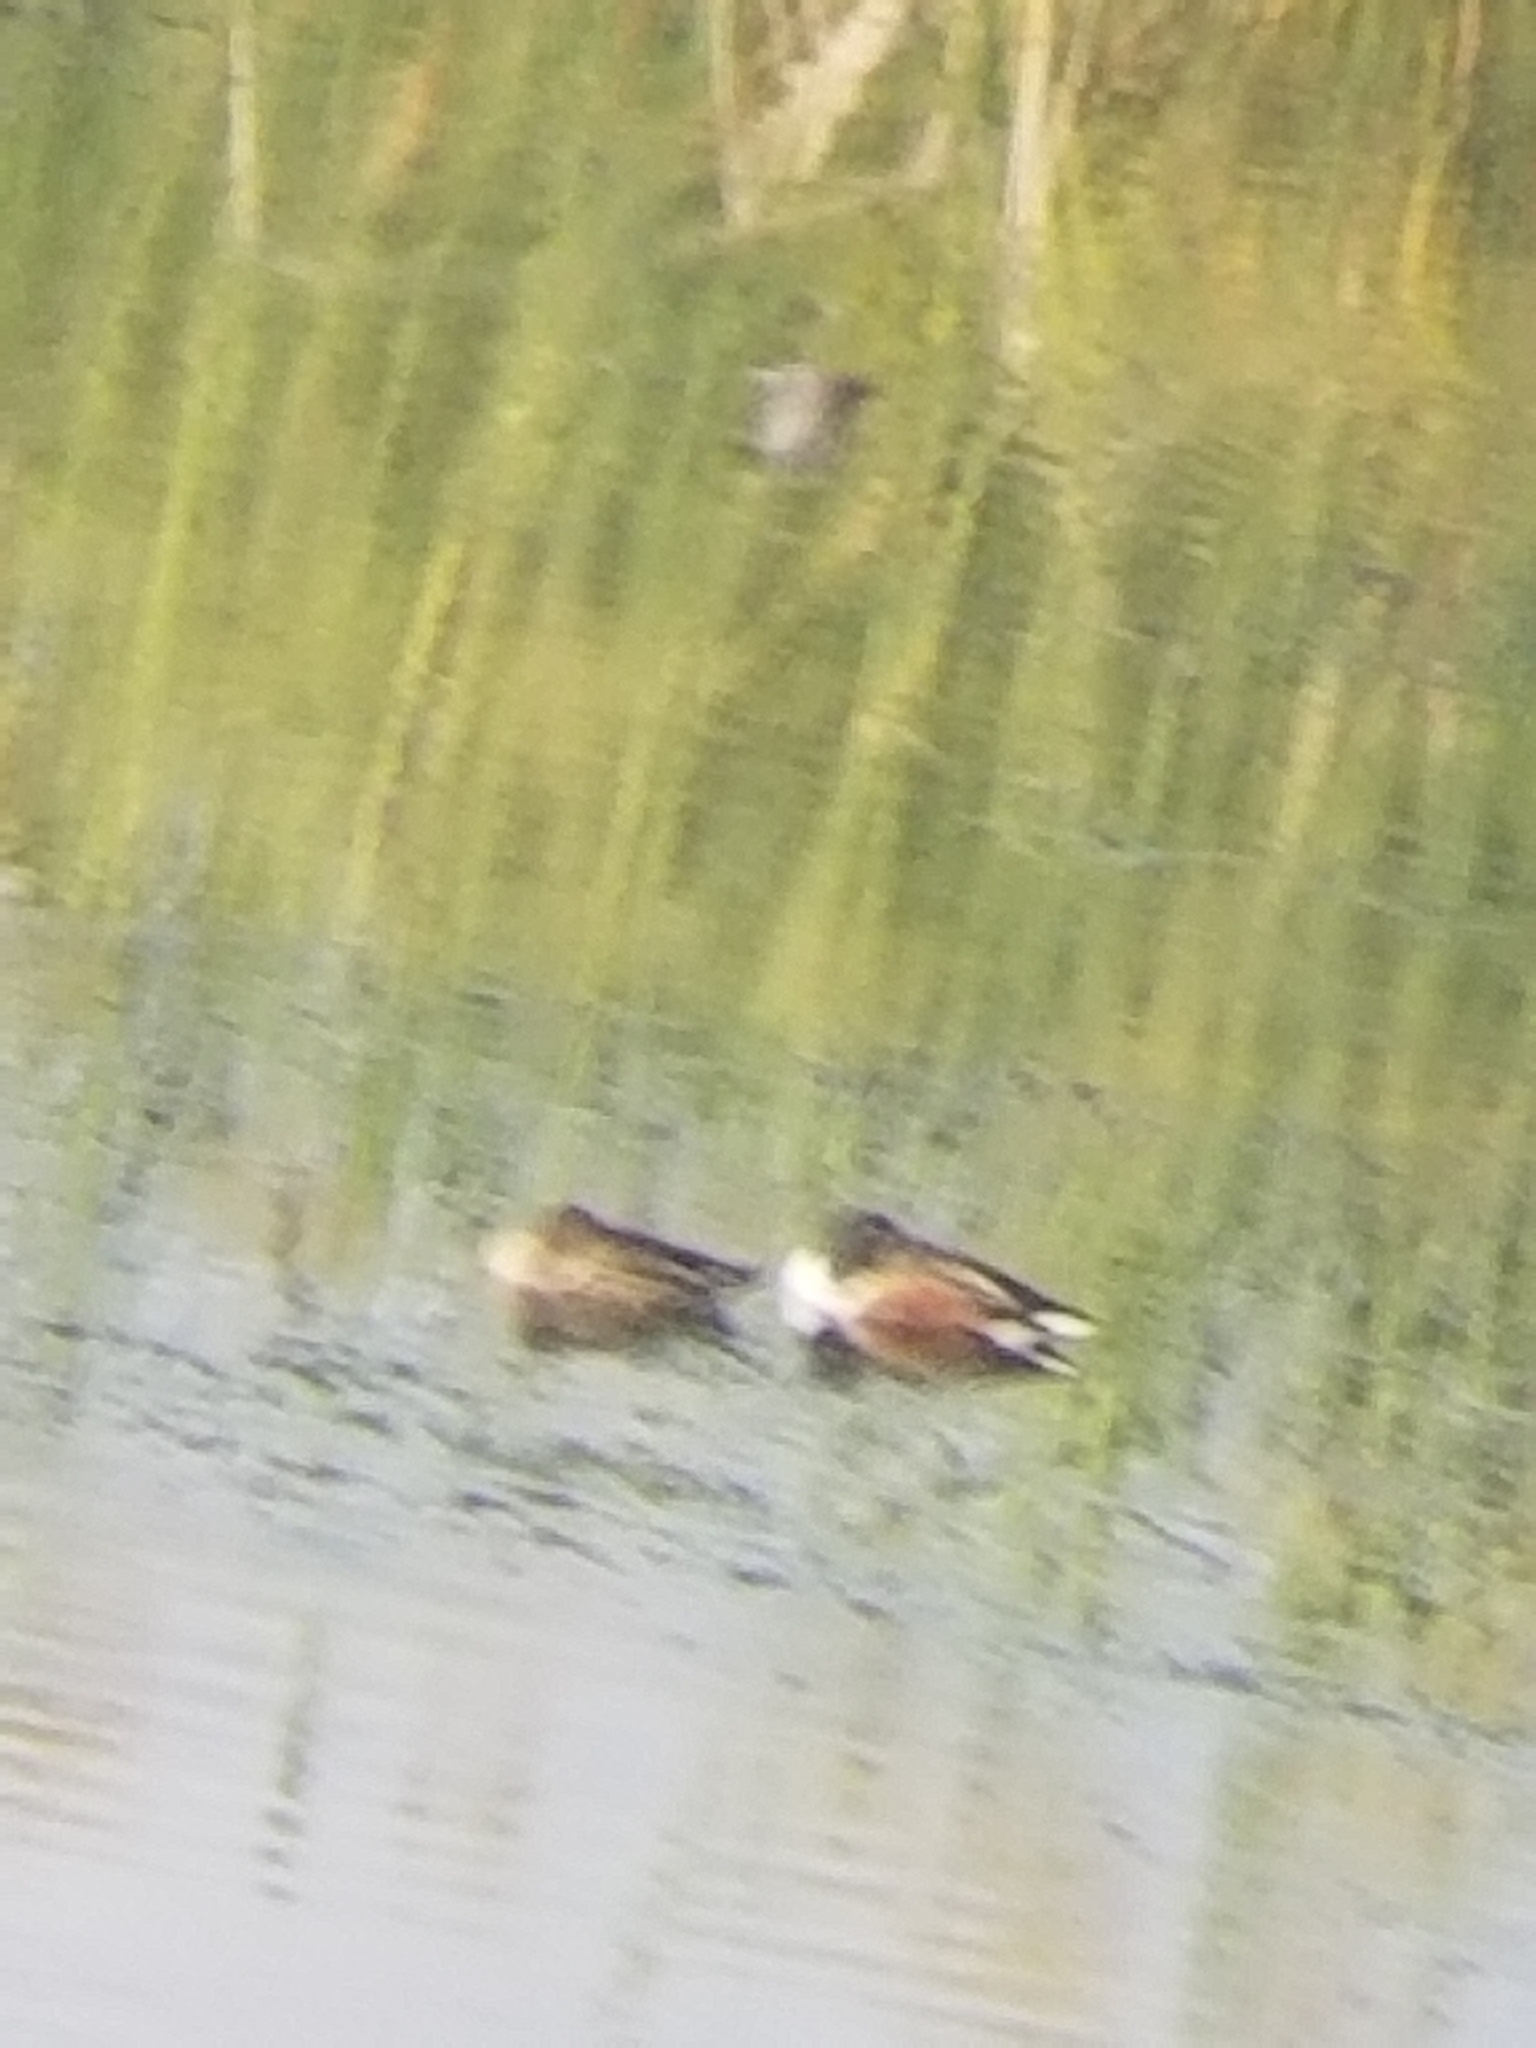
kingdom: Animalia
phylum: Chordata
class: Aves
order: Anseriformes
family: Anatidae
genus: Spatula
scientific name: Spatula clypeata
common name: Northern shoveler
